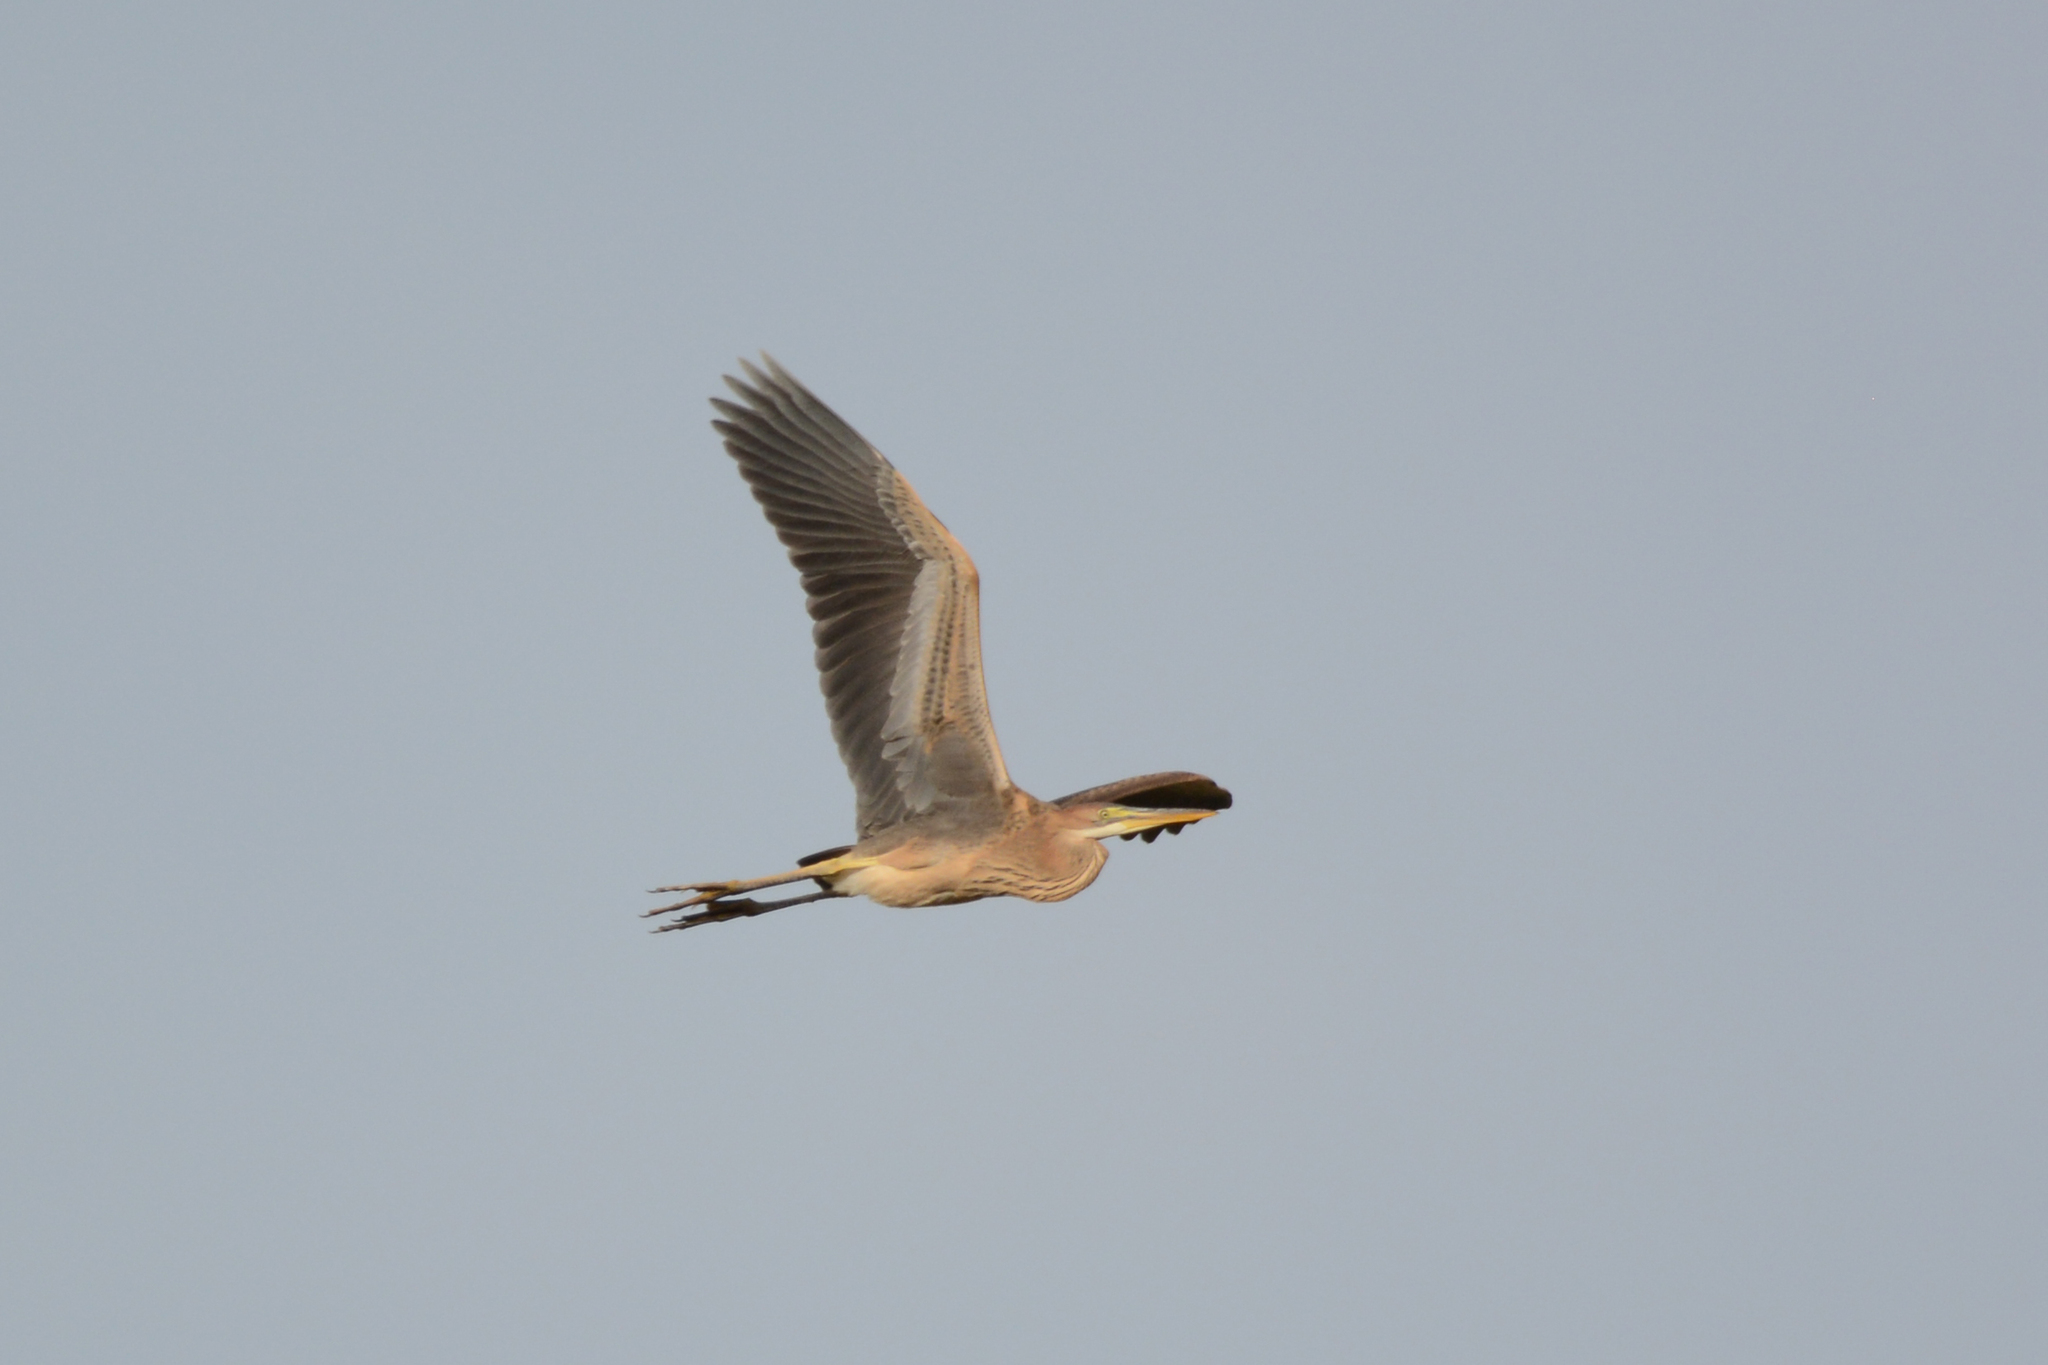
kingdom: Animalia
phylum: Chordata
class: Aves
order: Pelecaniformes
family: Ardeidae
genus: Ardea
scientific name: Ardea purpurea
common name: Purple heron
